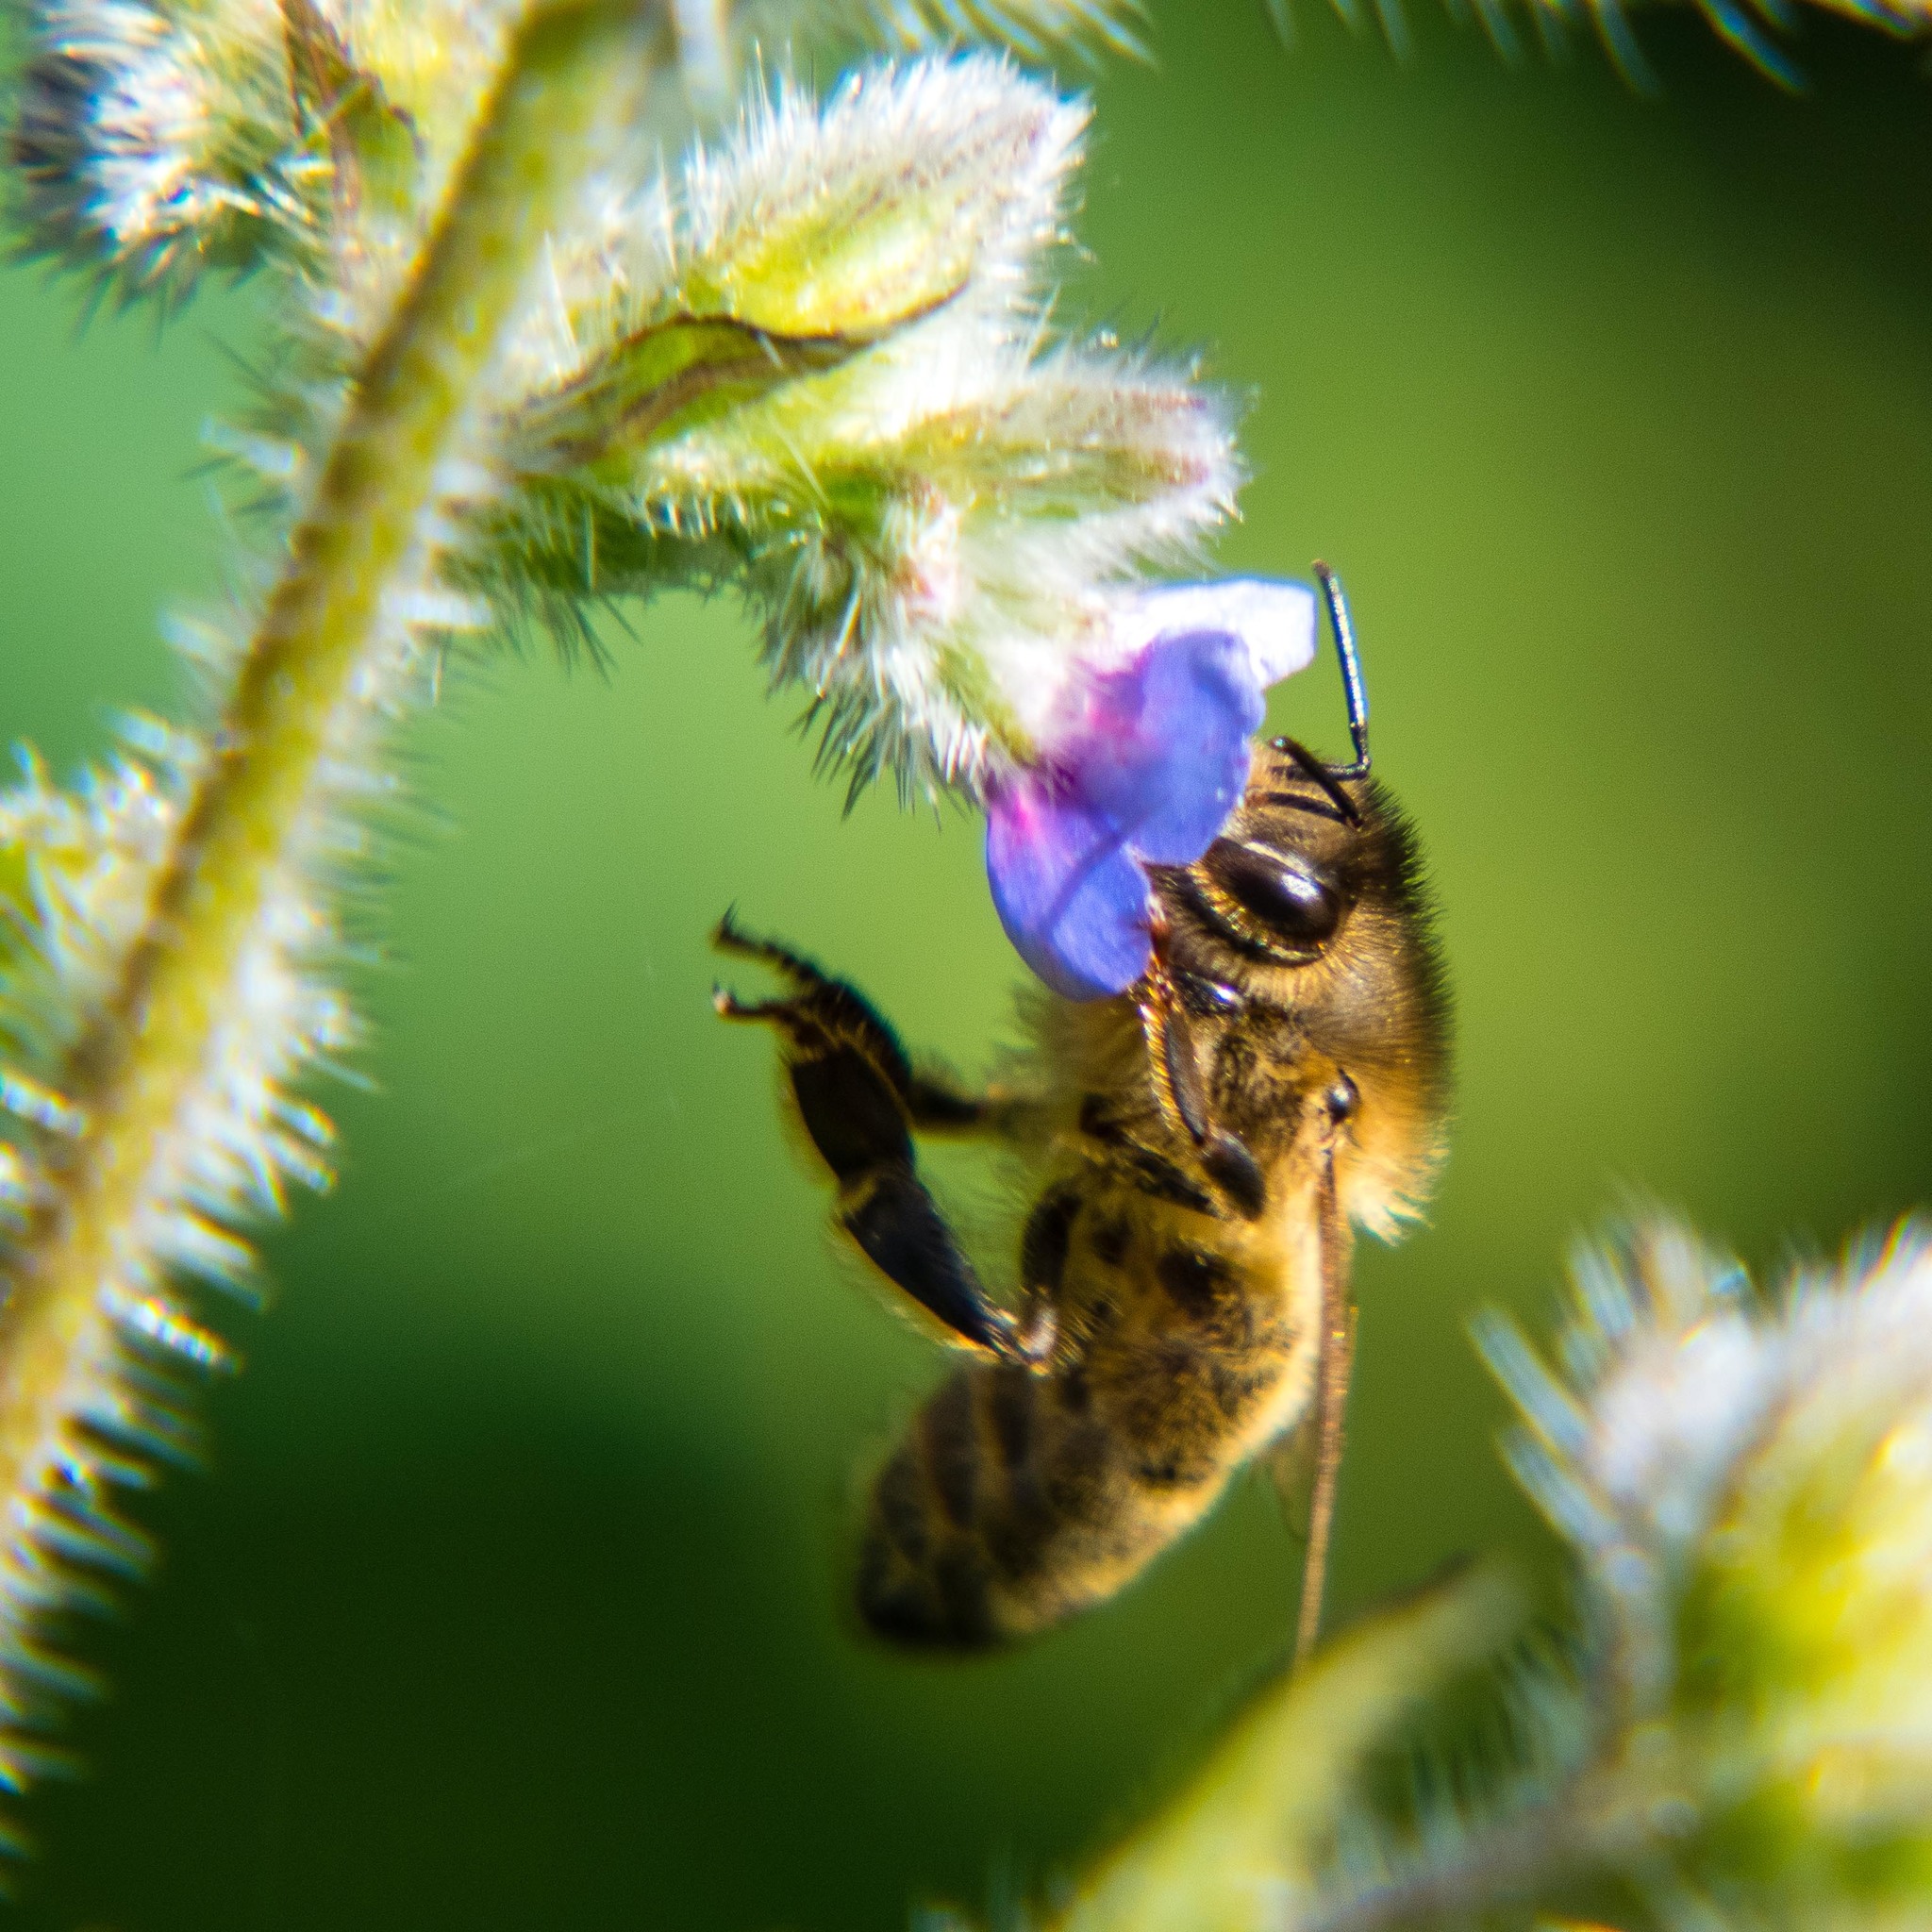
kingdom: Animalia
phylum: Arthropoda
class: Insecta
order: Hymenoptera
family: Apidae
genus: Apis
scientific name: Apis mellifera
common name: Honey bee
